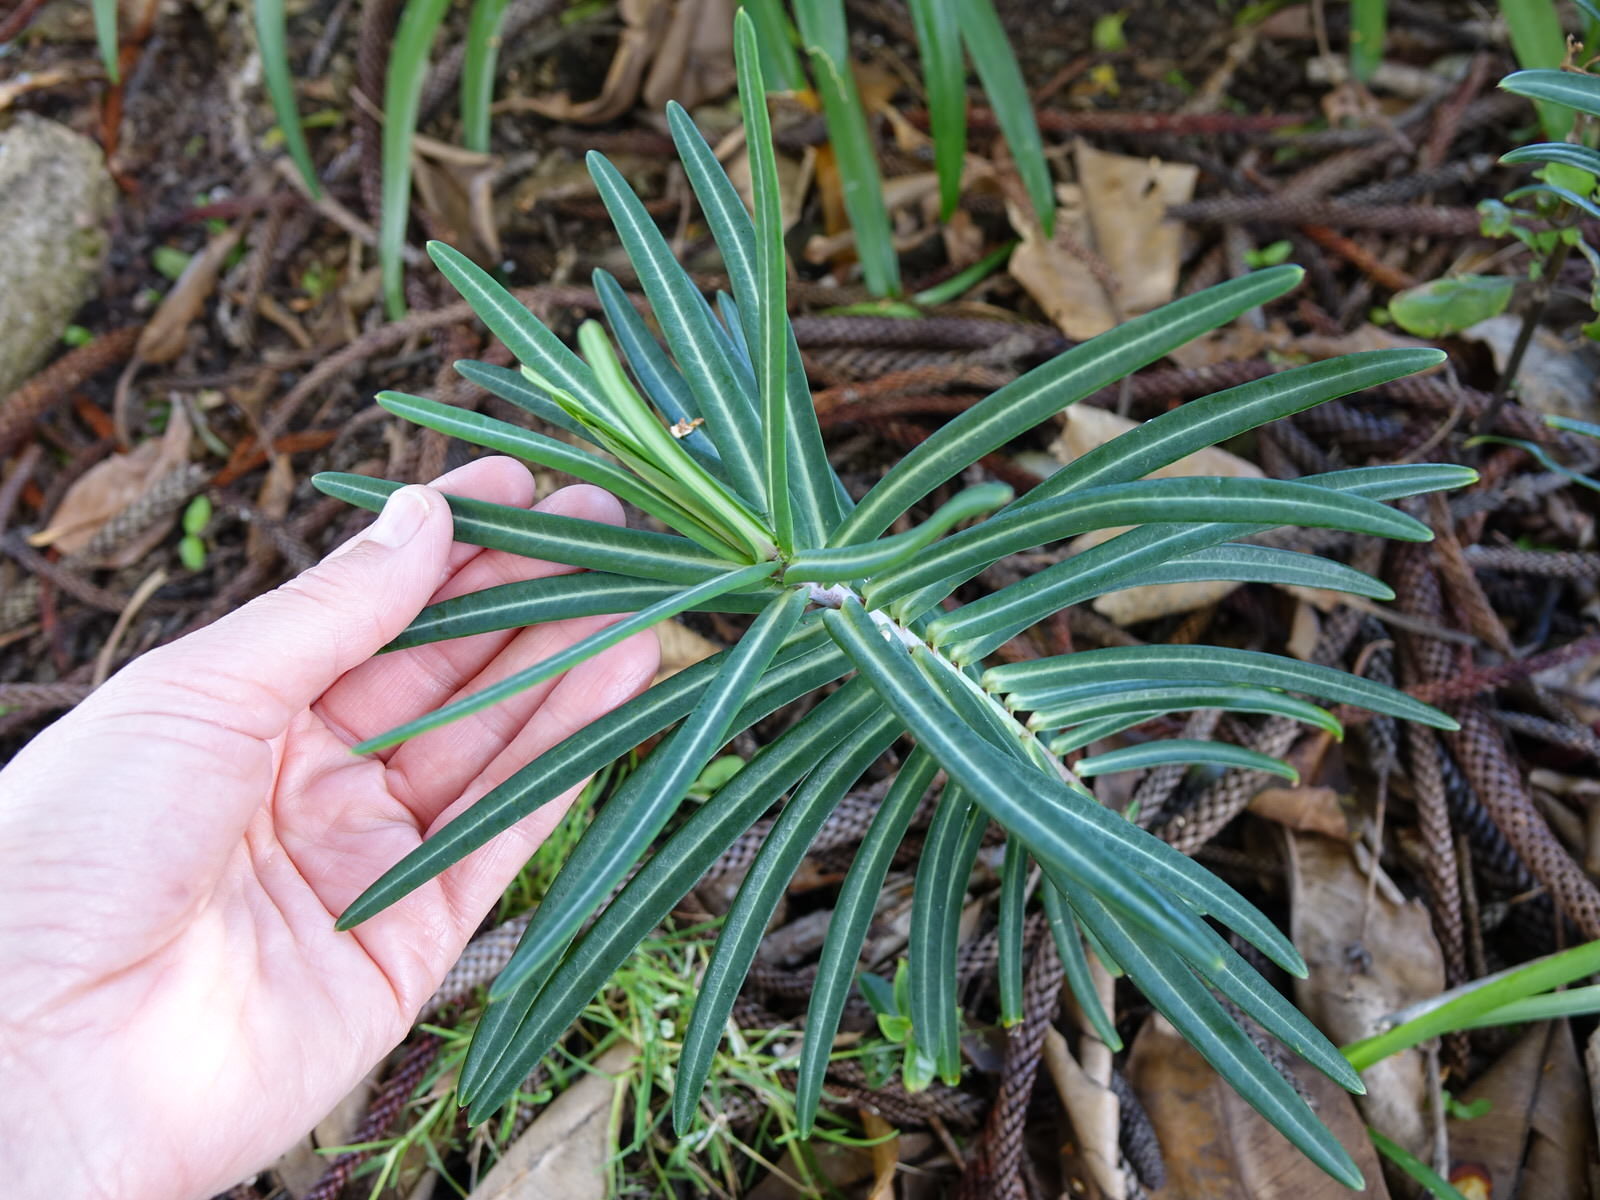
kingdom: Plantae
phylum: Tracheophyta
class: Magnoliopsida
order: Malpighiales
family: Euphorbiaceae
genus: Euphorbia
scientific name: Euphorbia lathyris
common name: Caper spurge
